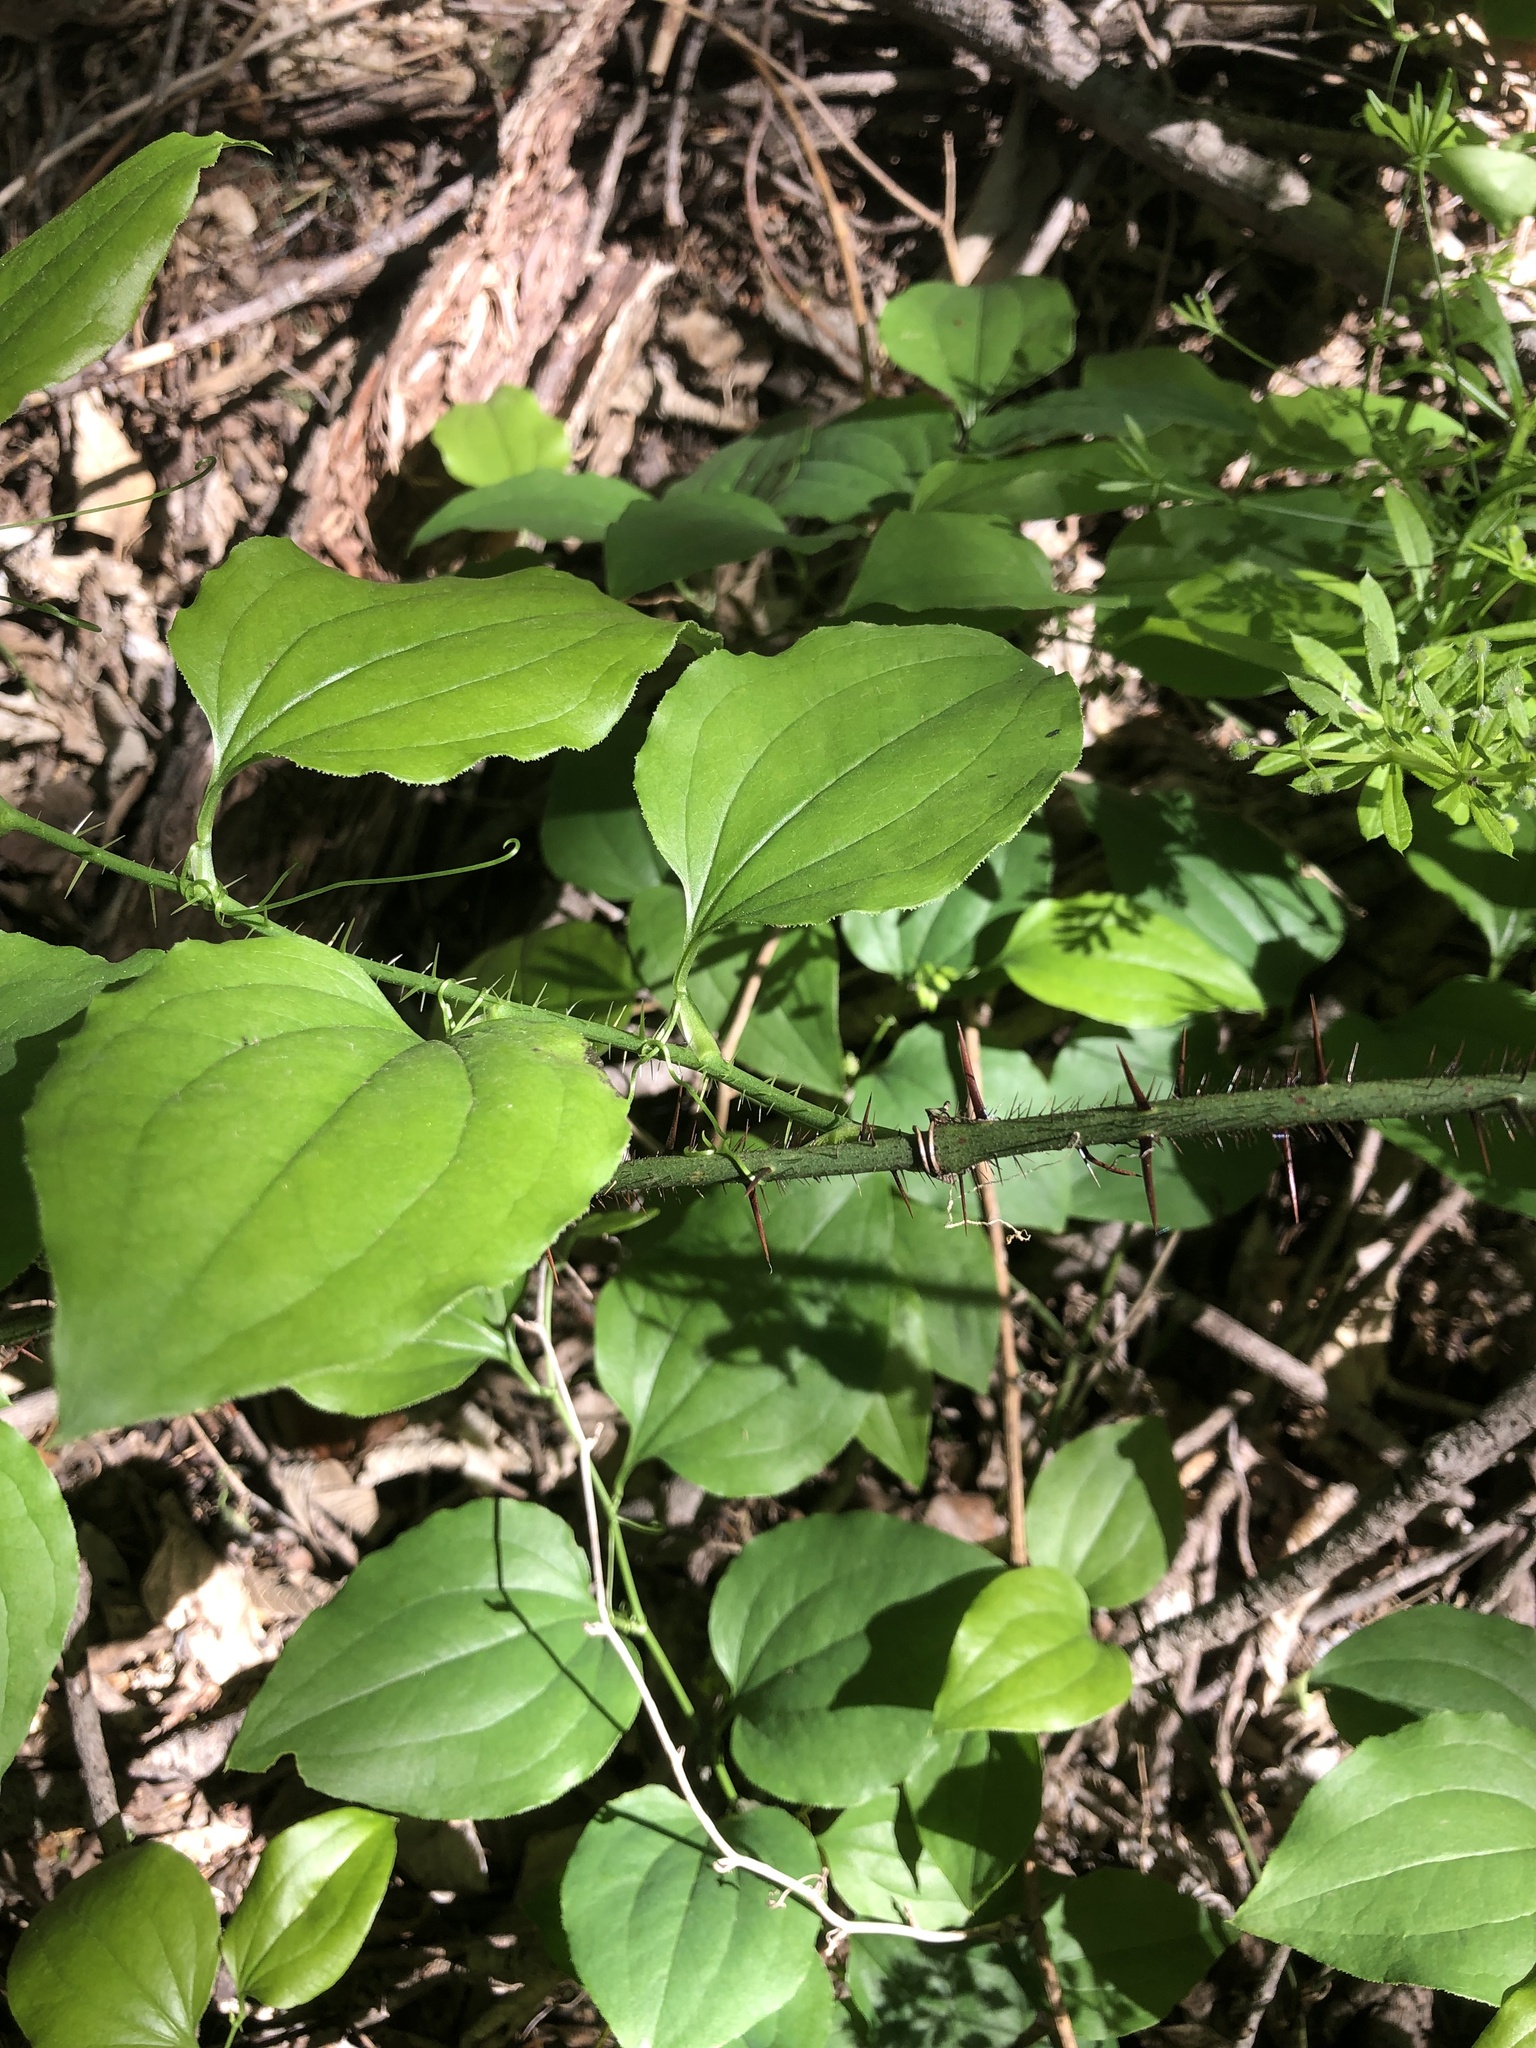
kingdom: Plantae
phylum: Tracheophyta
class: Liliopsida
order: Liliales
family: Smilacaceae
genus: Smilax
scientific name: Smilax tamnoides
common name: Hellfetter
